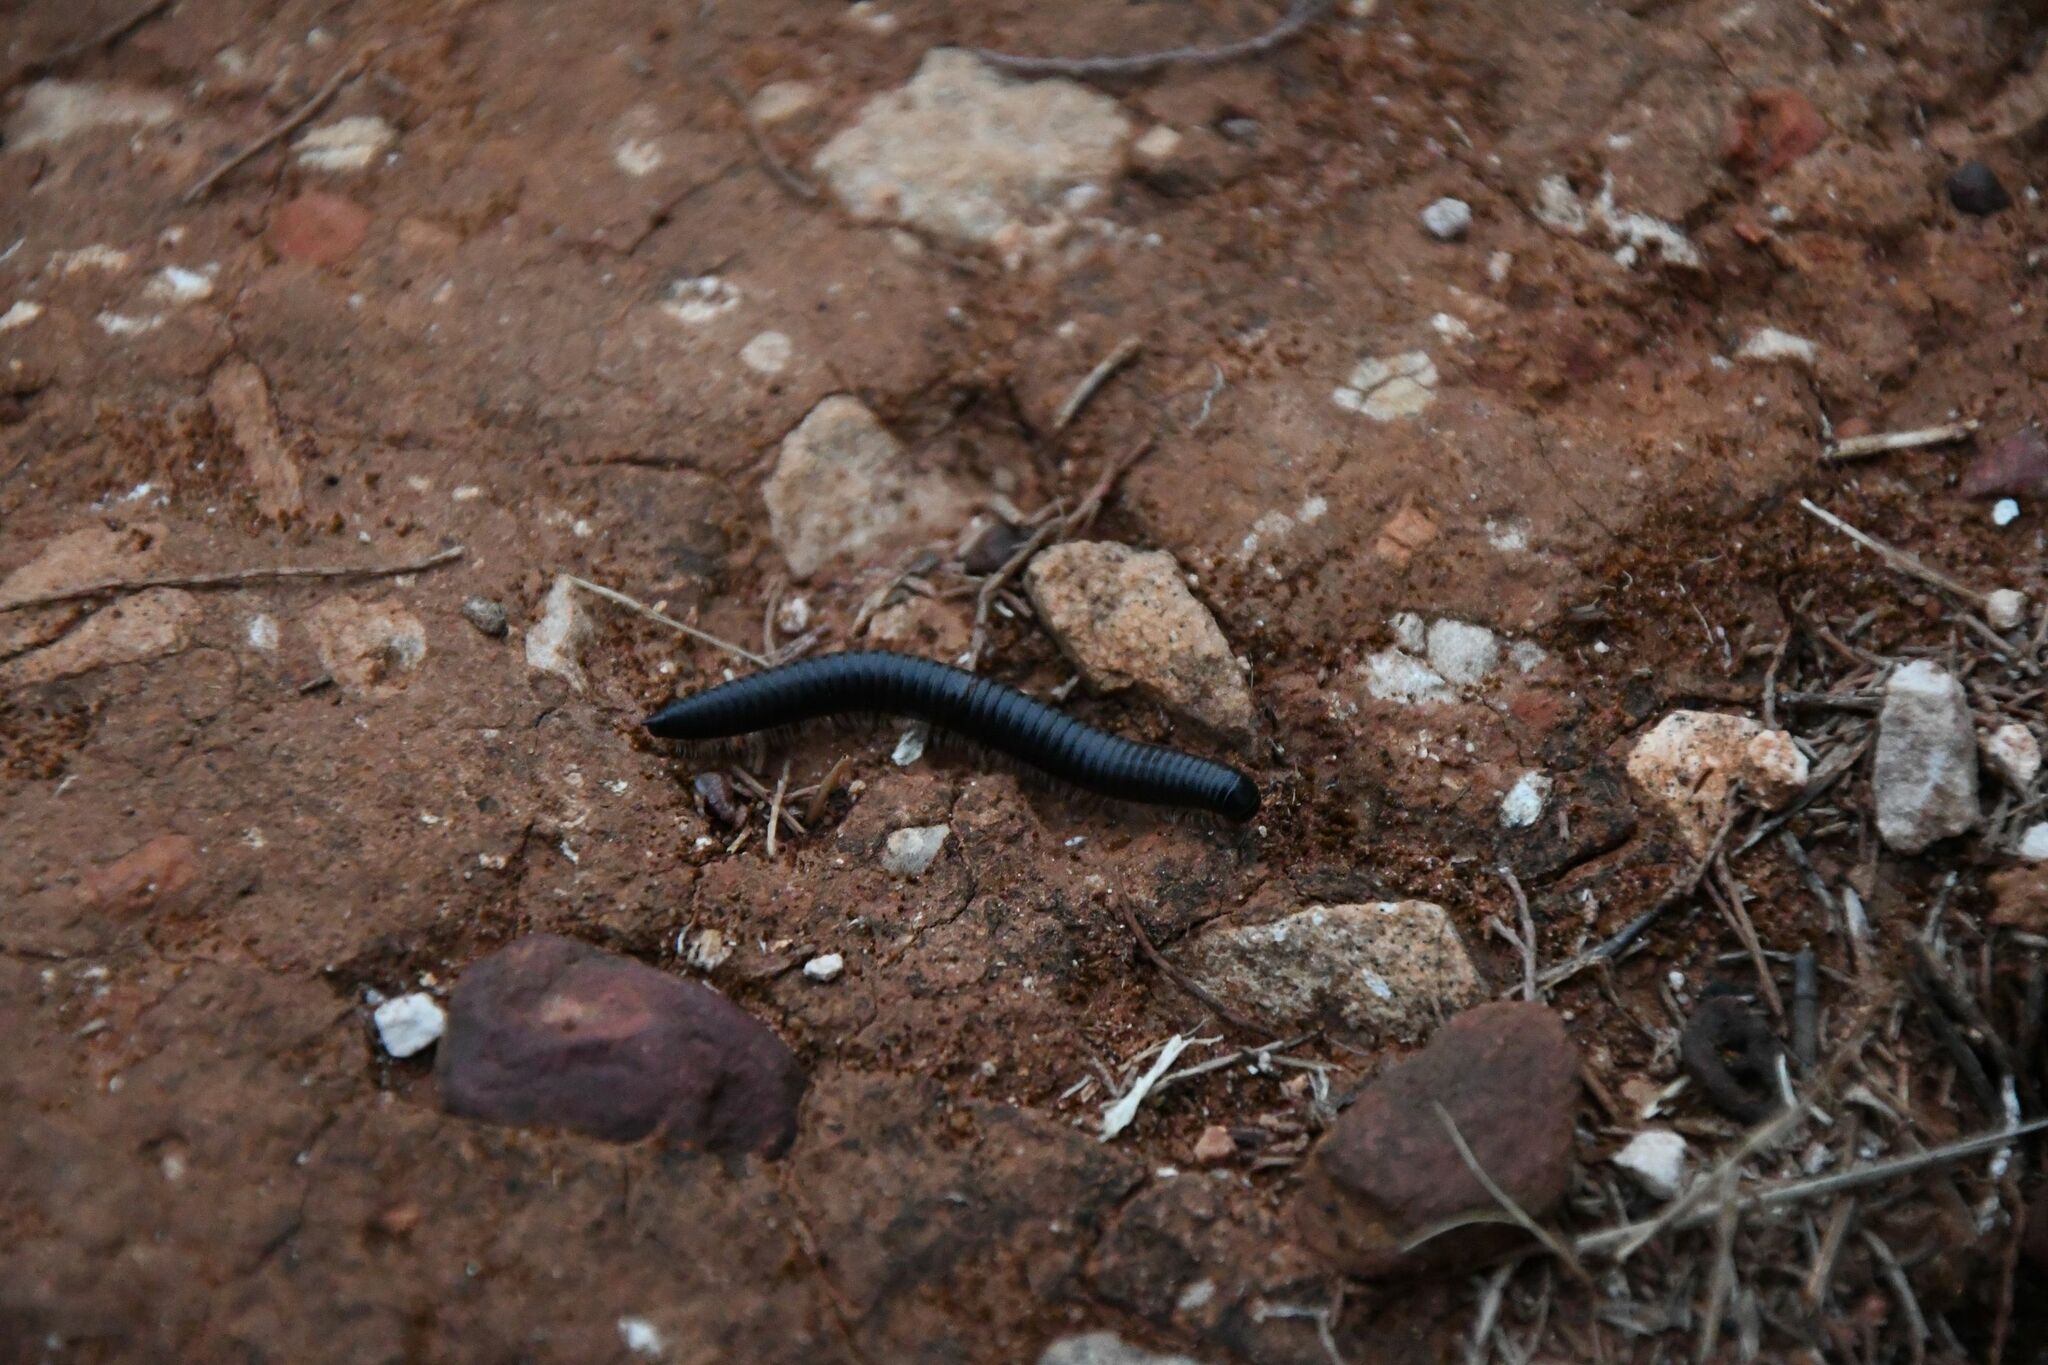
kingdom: Animalia
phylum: Arthropoda
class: Diplopoda
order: Julida
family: Julidae
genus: Ommatoiulus
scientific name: Ommatoiulus moreleti
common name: Portuguese millipede
